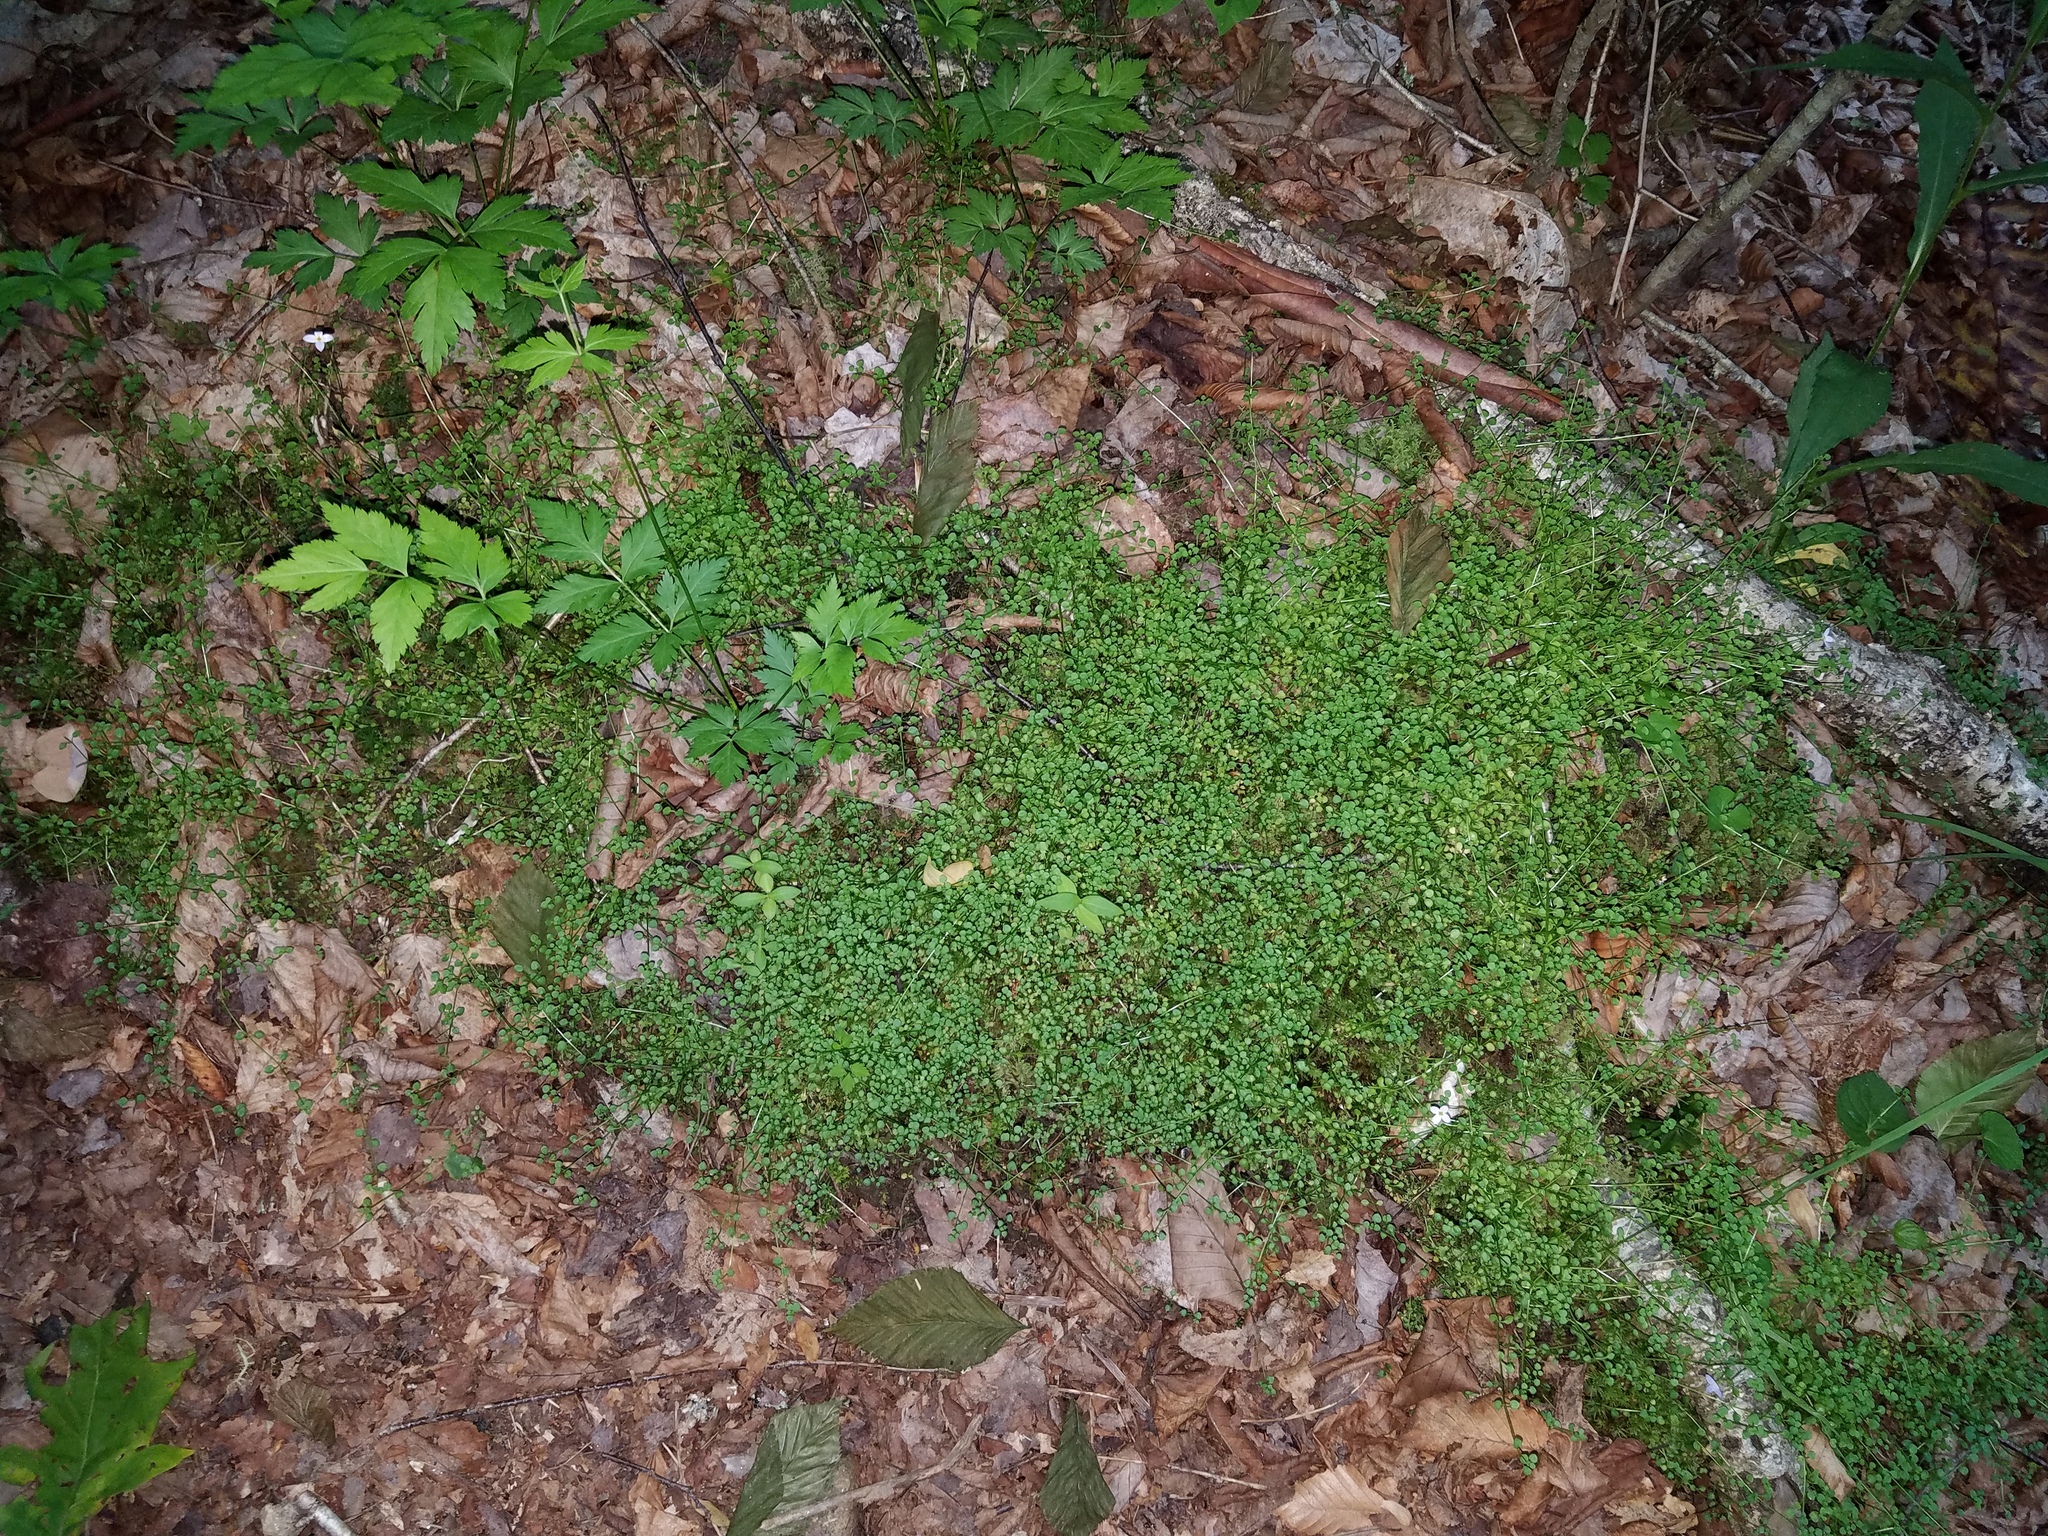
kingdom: Plantae
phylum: Tracheophyta
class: Magnoliopsida
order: Gentianales
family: Rubiaceae
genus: Houstonia
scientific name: Houstonia serpyllifolia
